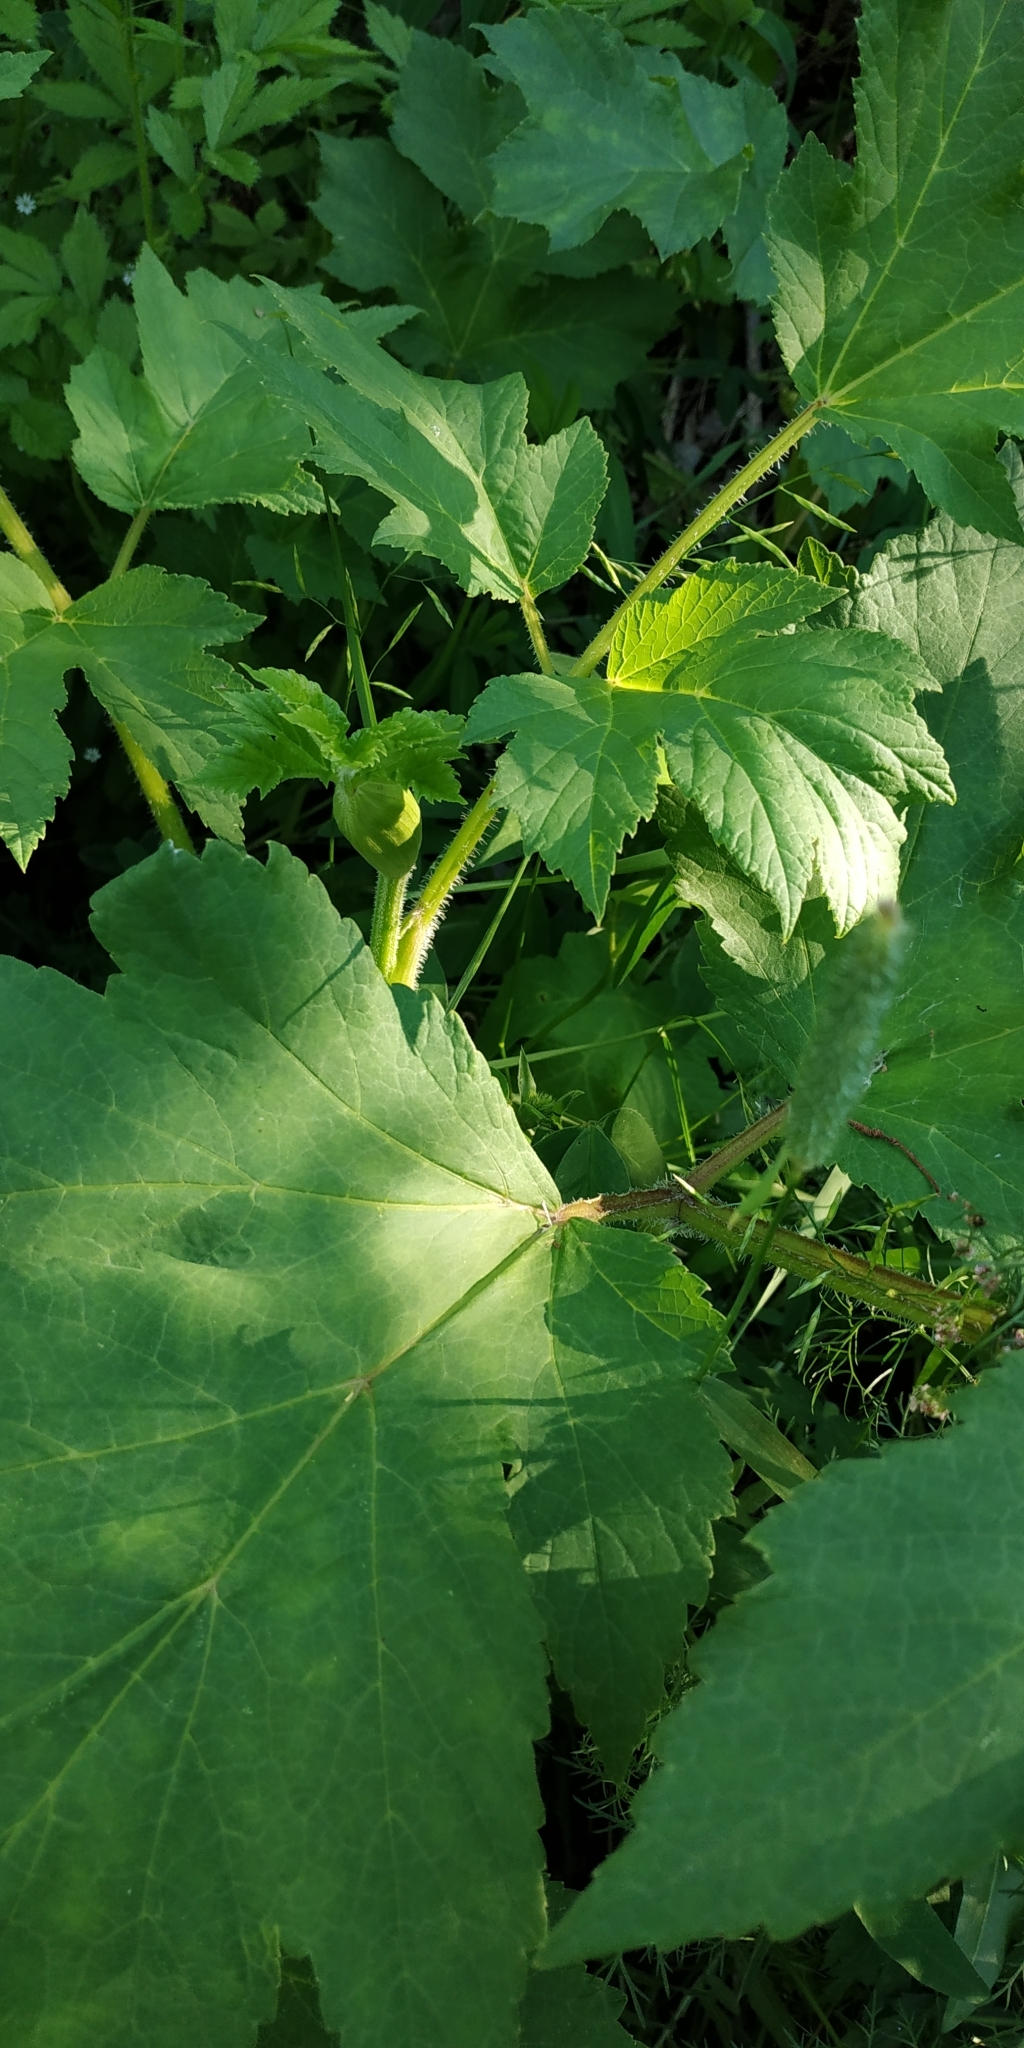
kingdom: Plantae
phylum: Tracheophyta
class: Magnoliopsida
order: Apiales
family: Apiaceae
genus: Heracleum
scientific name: Heracleum sphondylium
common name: Hogweed
